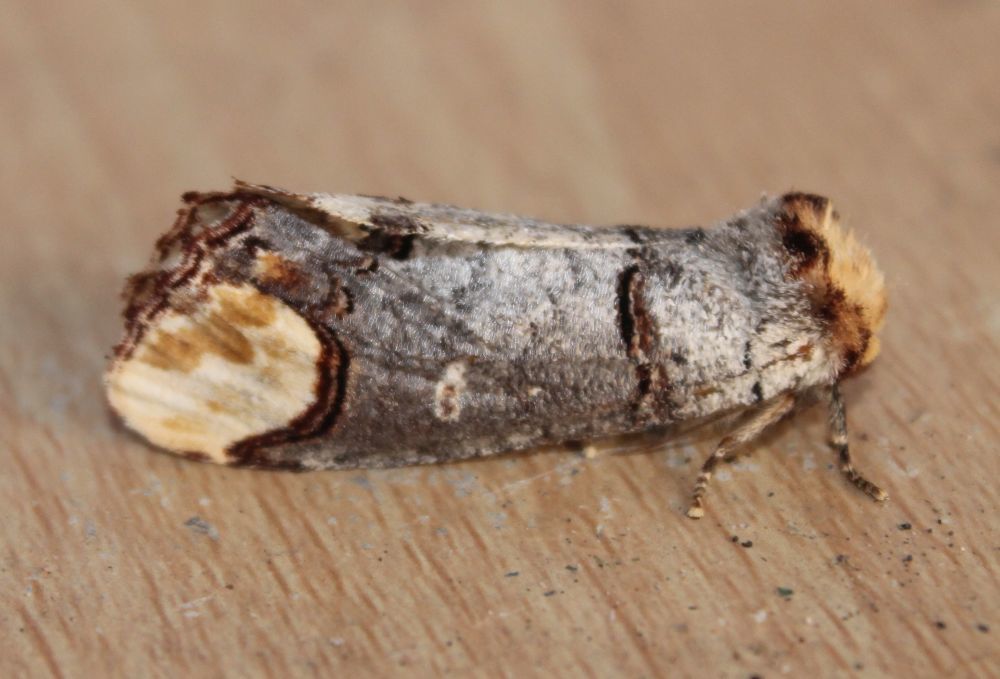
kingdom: Animalia
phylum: Arthropoda
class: Insecta
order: Lepidoptera
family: Notodontidae
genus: Phalera
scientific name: Phalera bucephala
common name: Buff-tip
